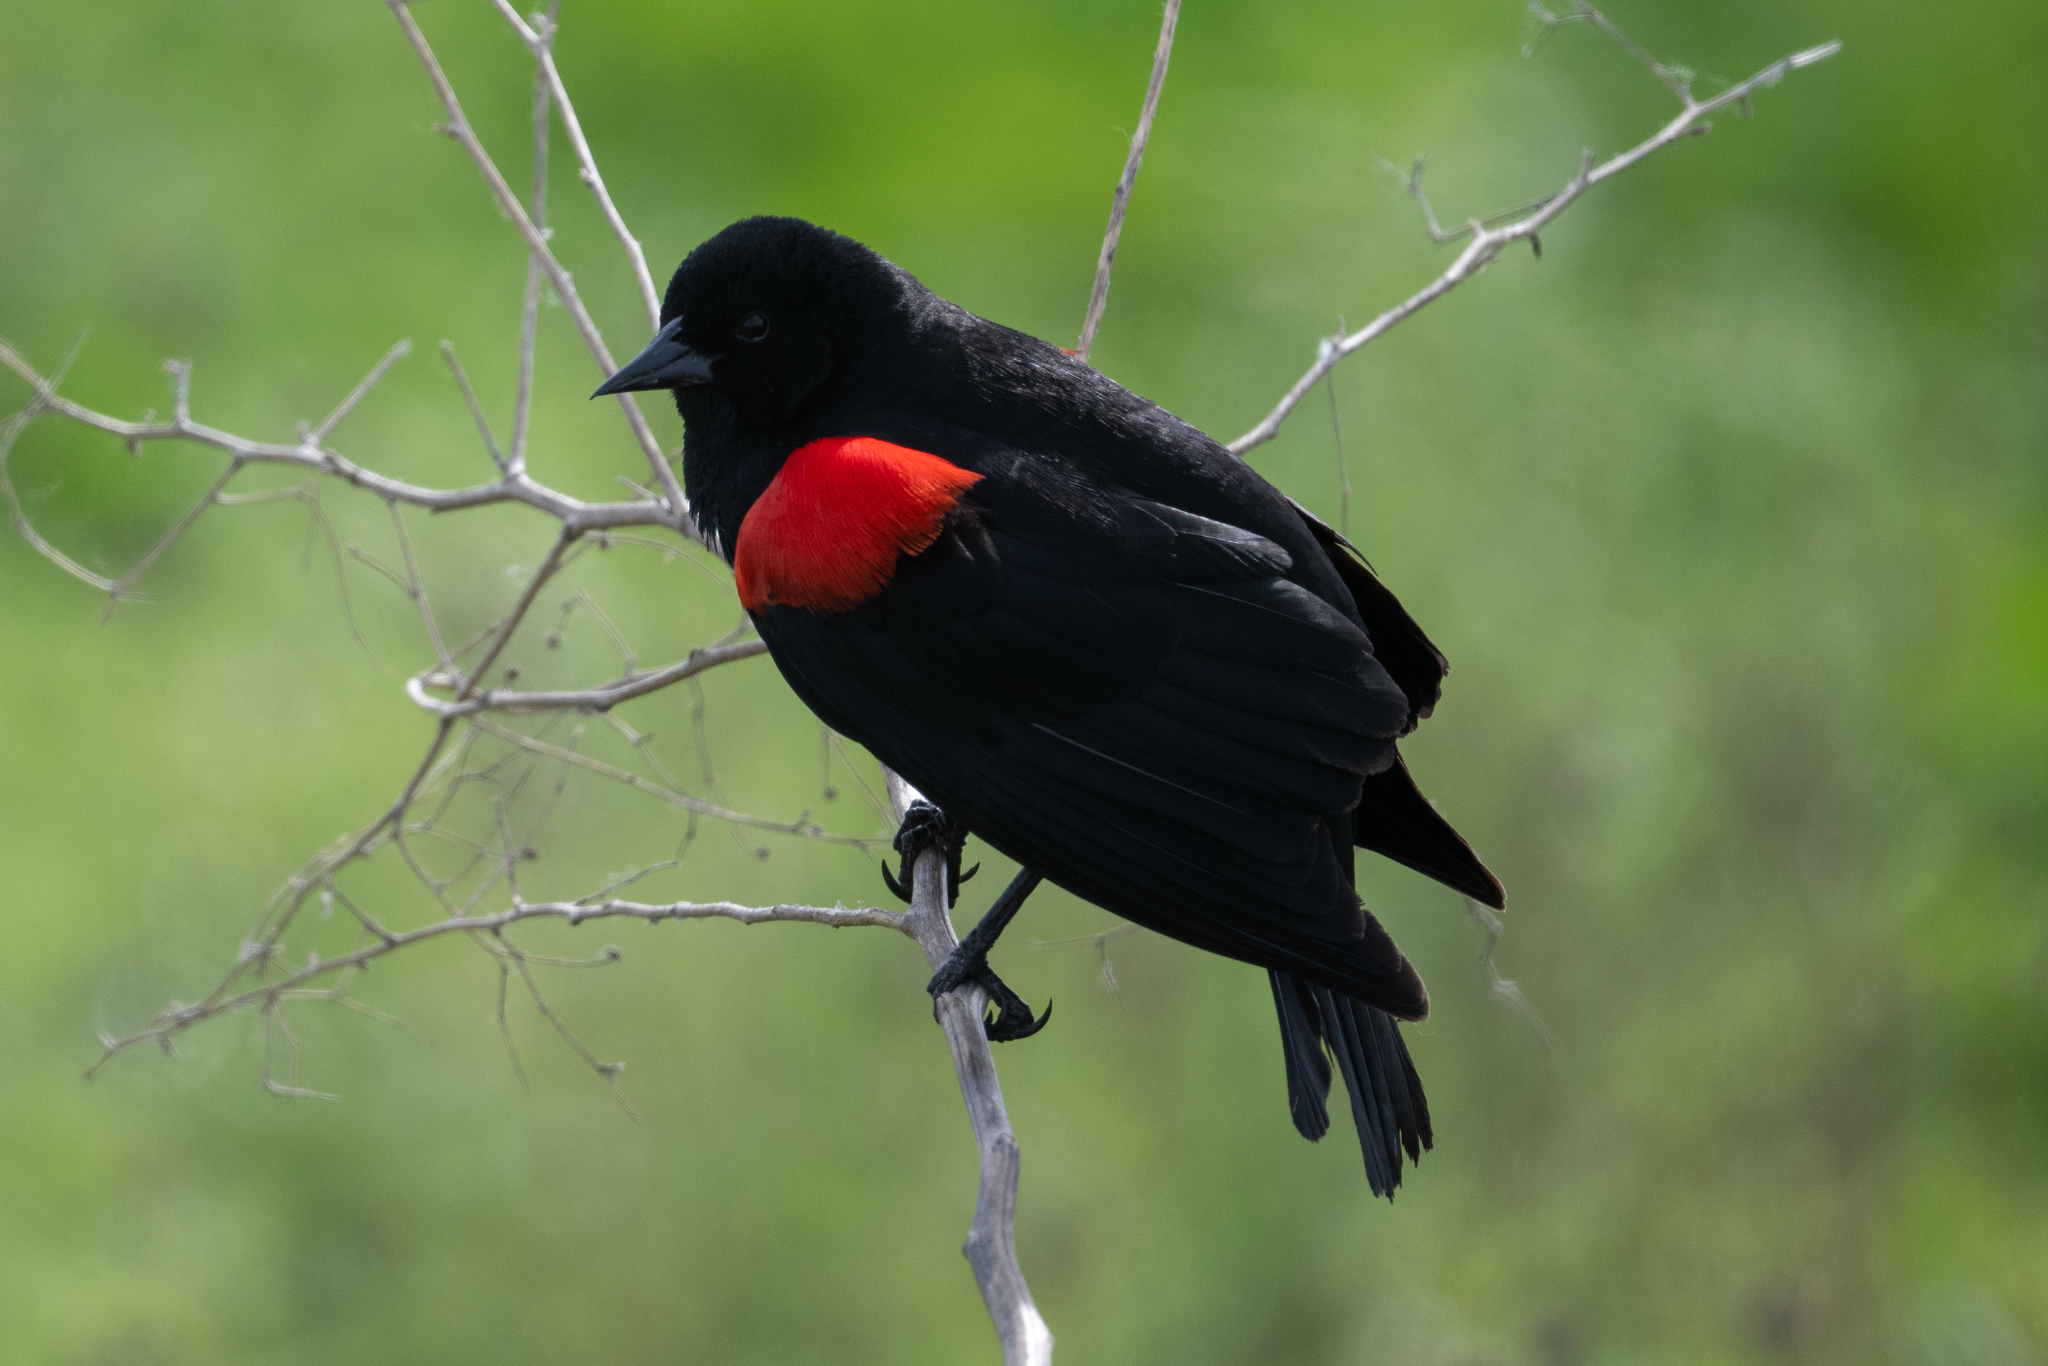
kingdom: Animalia
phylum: Chordata
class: Aves
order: Passeriformes
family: Icteridae
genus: Agelaius
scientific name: Agelaius phoeniceus
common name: Red-winged blackbird
